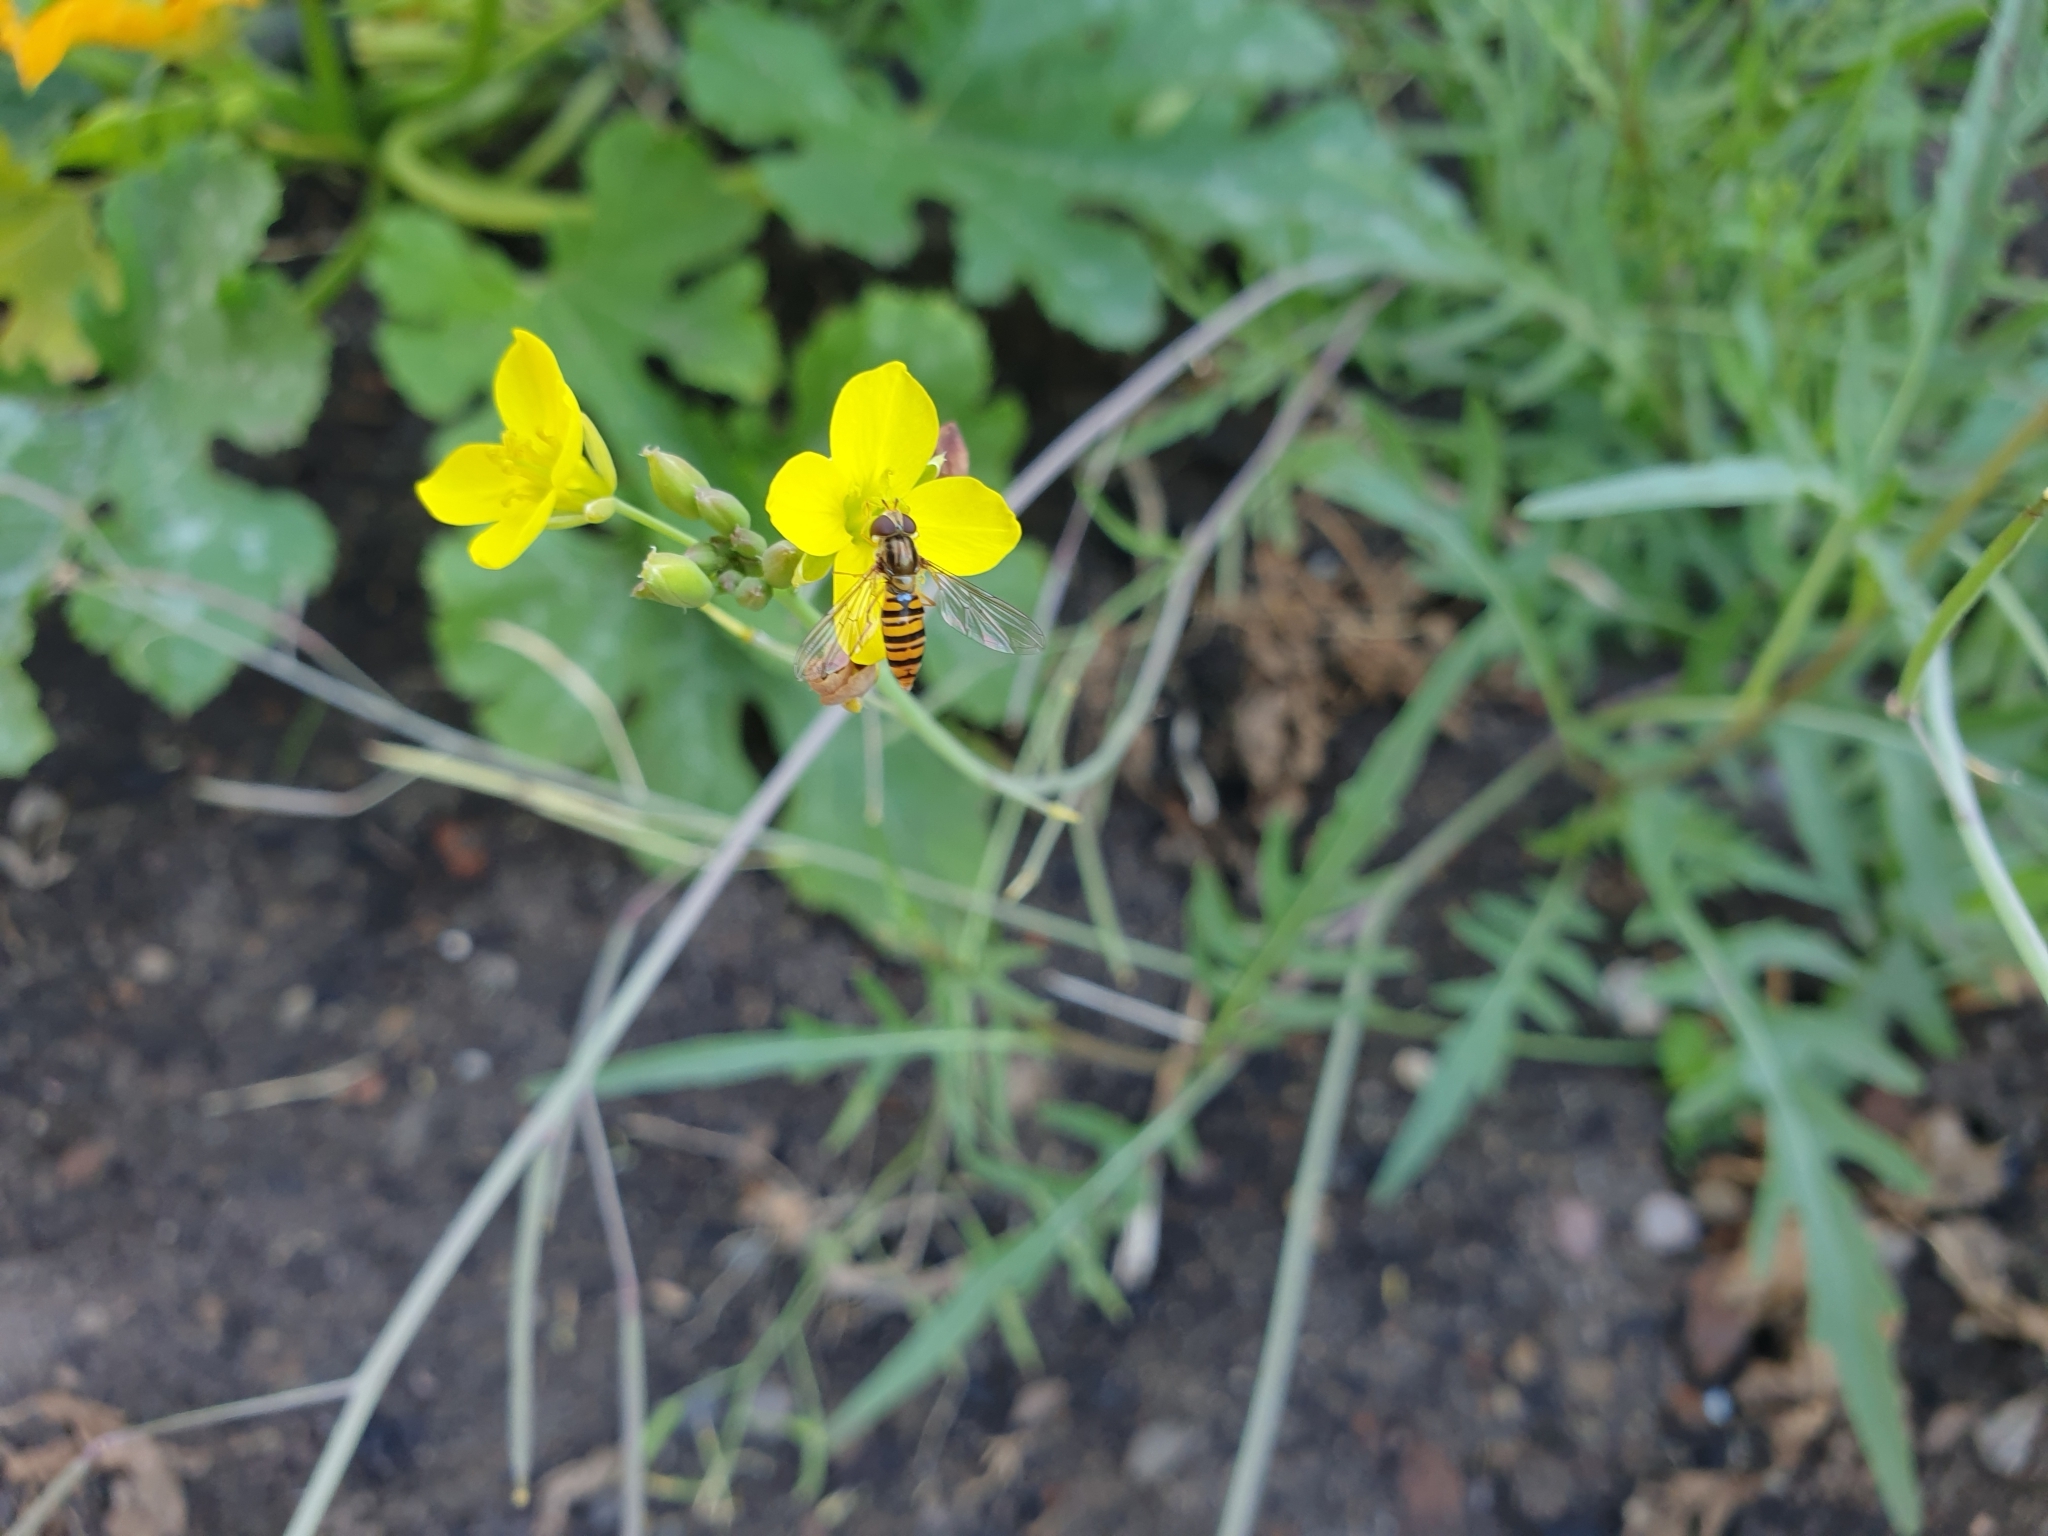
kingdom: Animalia
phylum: Arthropoda
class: Insecta
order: Diptera
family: Syrphidae
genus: Episyrphus
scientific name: Episyrphus balteatus
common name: Marmalade hoverfly
